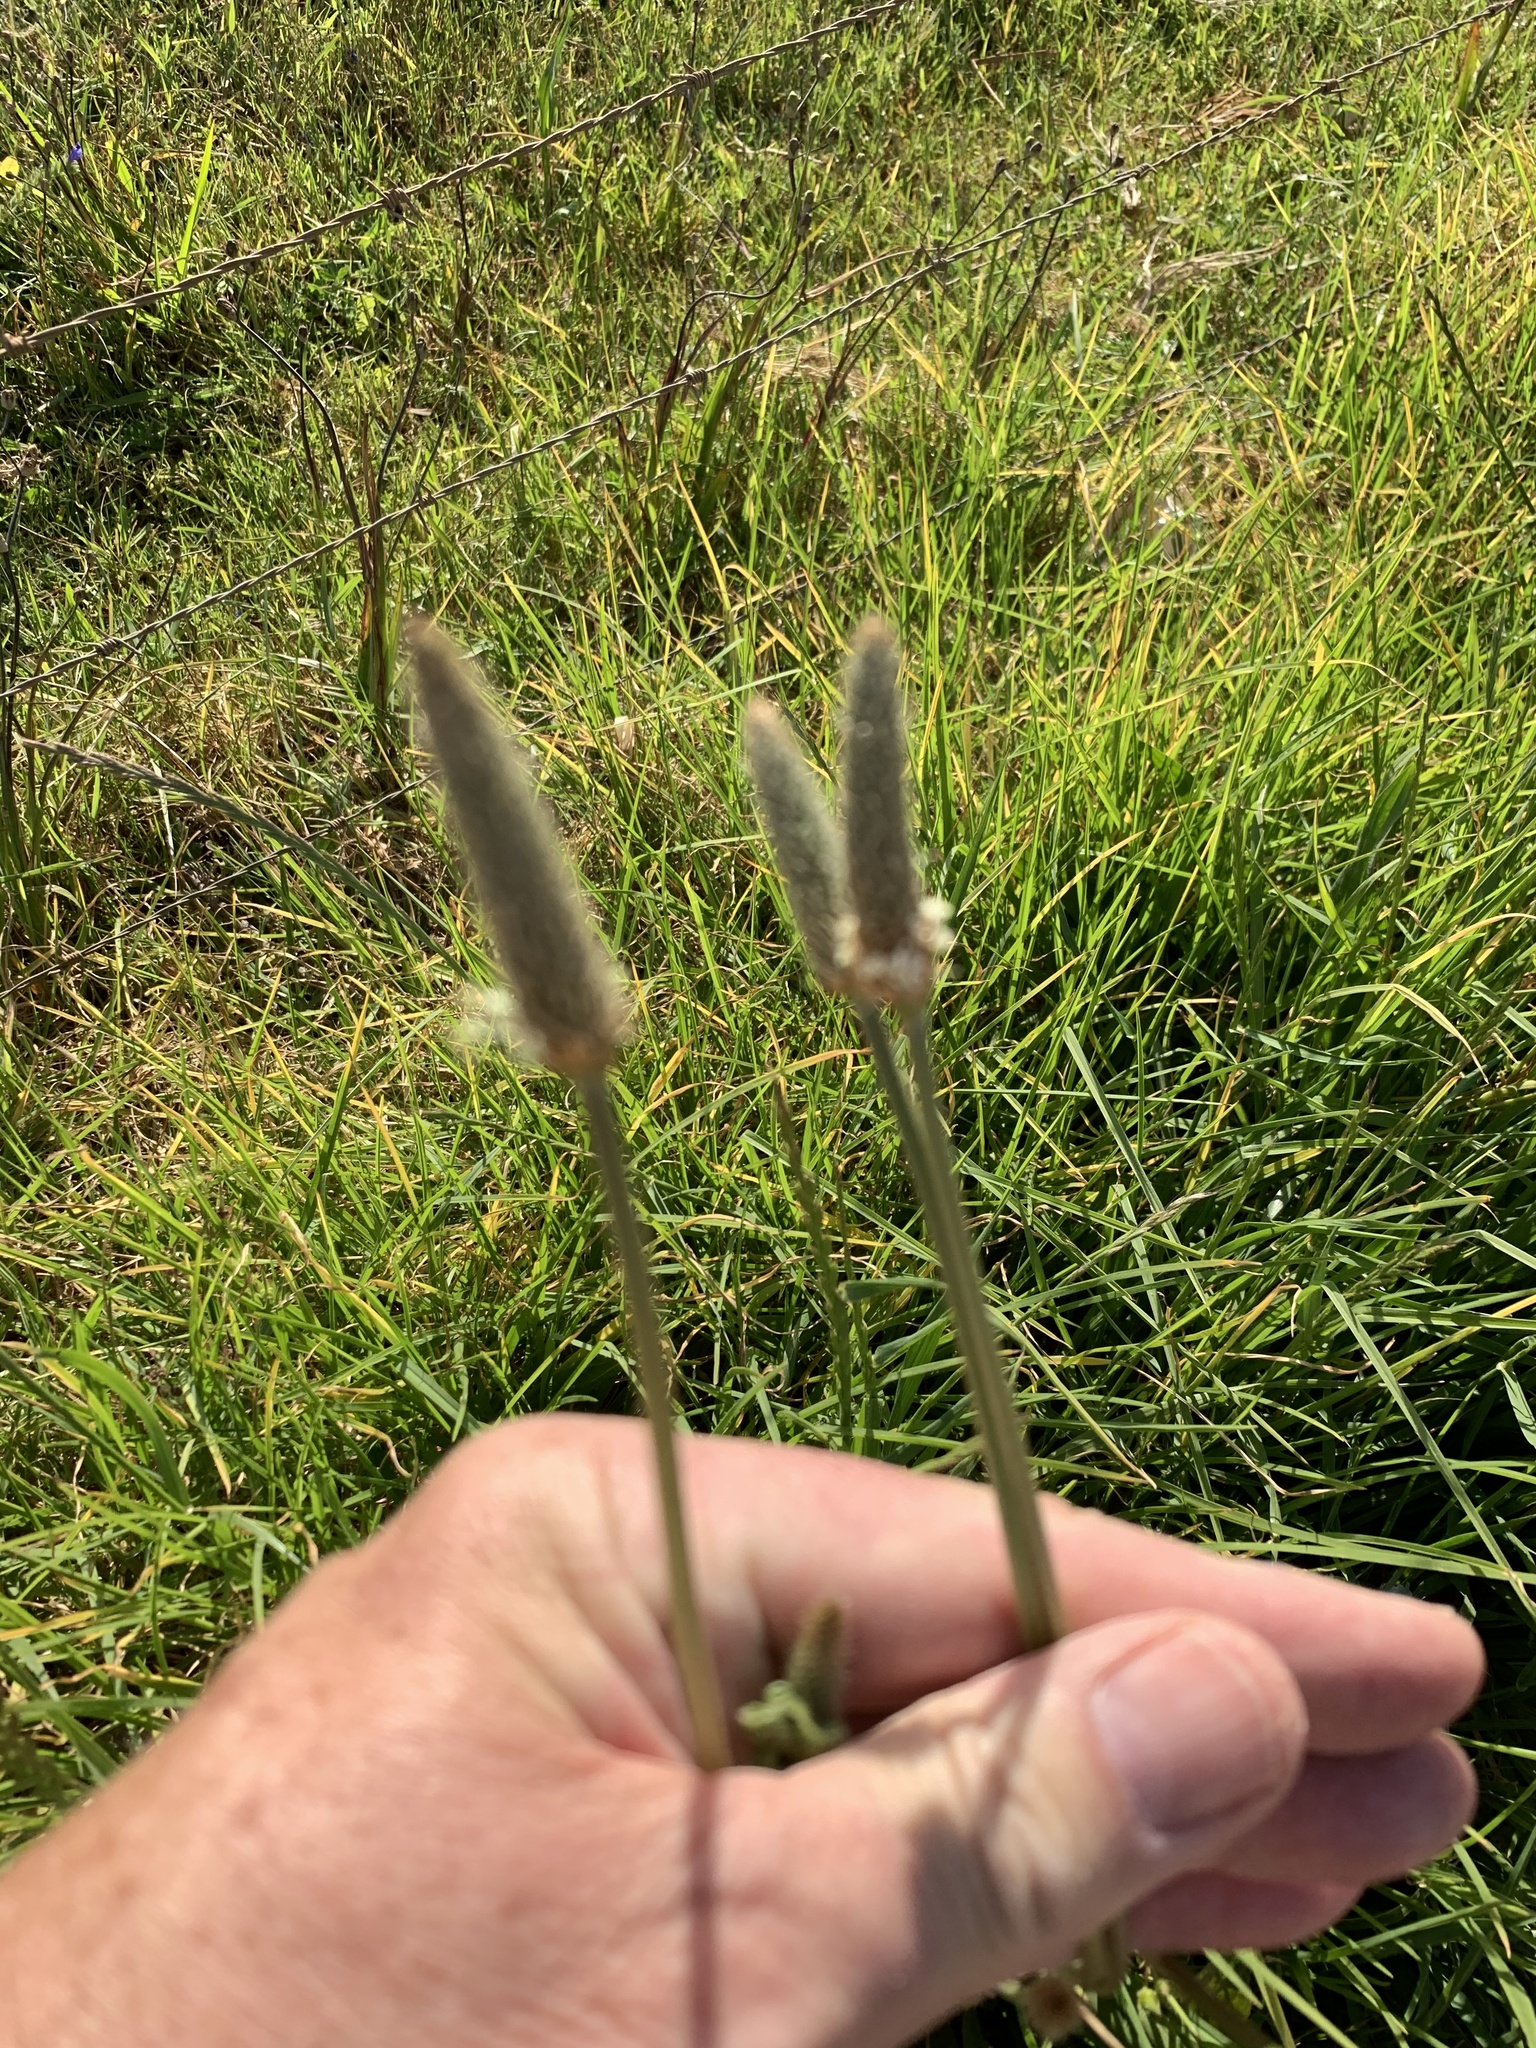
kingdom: Plantae
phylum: Tracheophyta
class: Magnoliopsida
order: Lamiales
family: Plantaginaceae
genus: Plantago
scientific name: Plantago lanceolata
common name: Ribwort plantain
